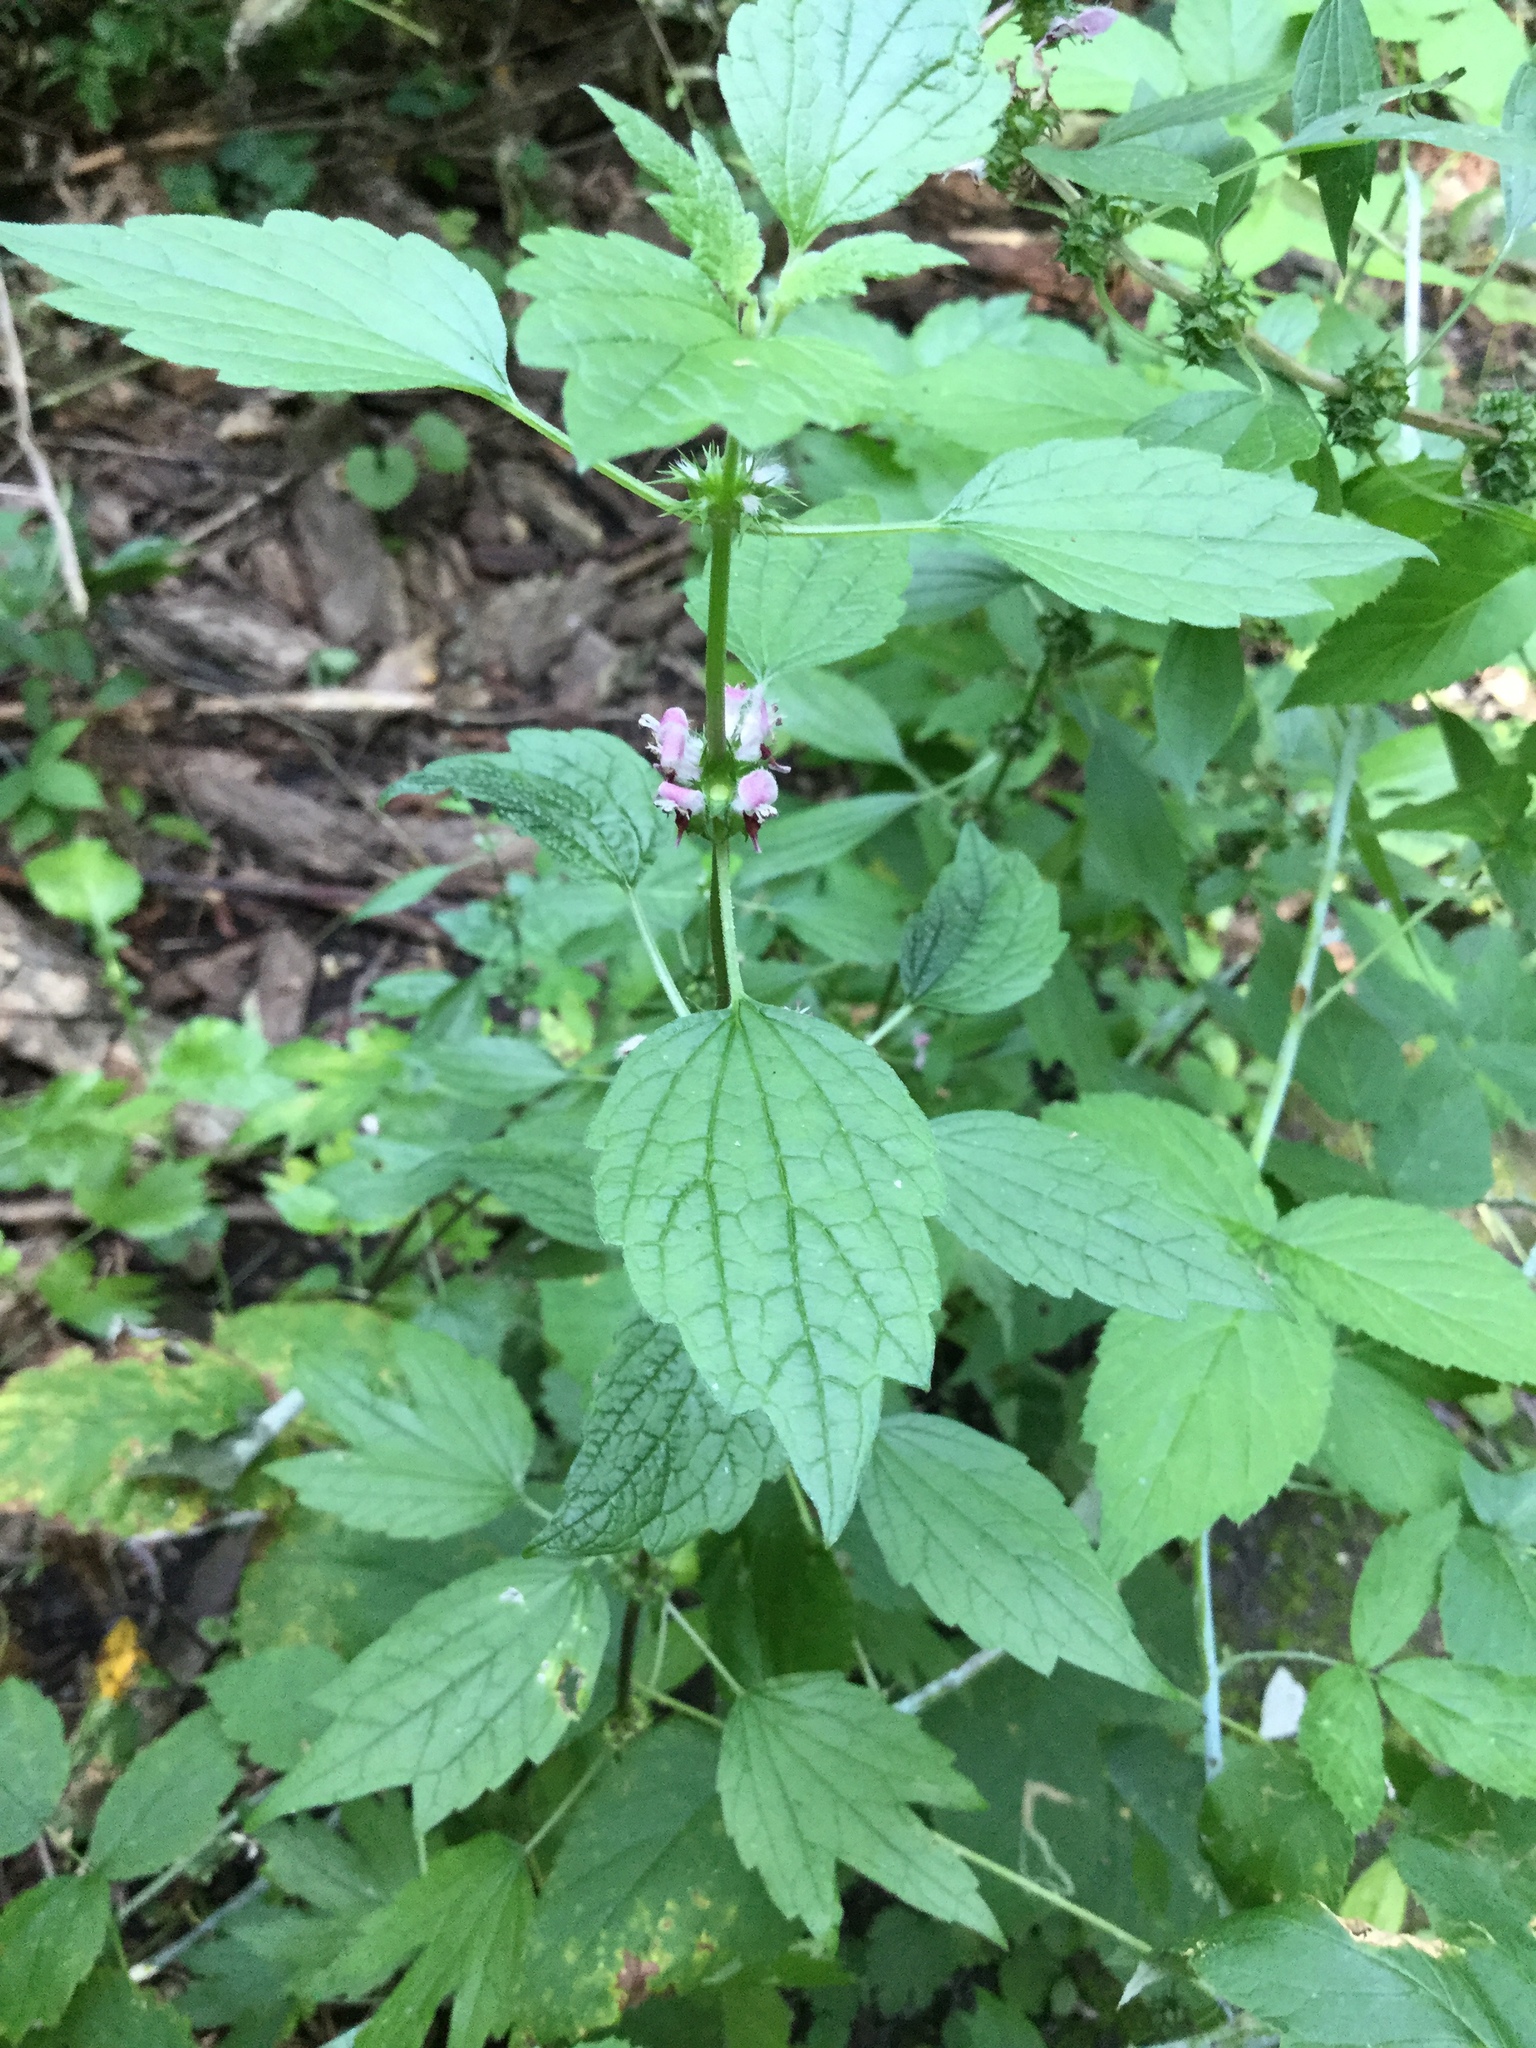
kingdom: Plantae
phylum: Tracheophyta
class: Magnoliopsida
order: Lamiales
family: Lamiaceae
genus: Leonurus
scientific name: Leonurus cardiaca
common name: Motherwort
